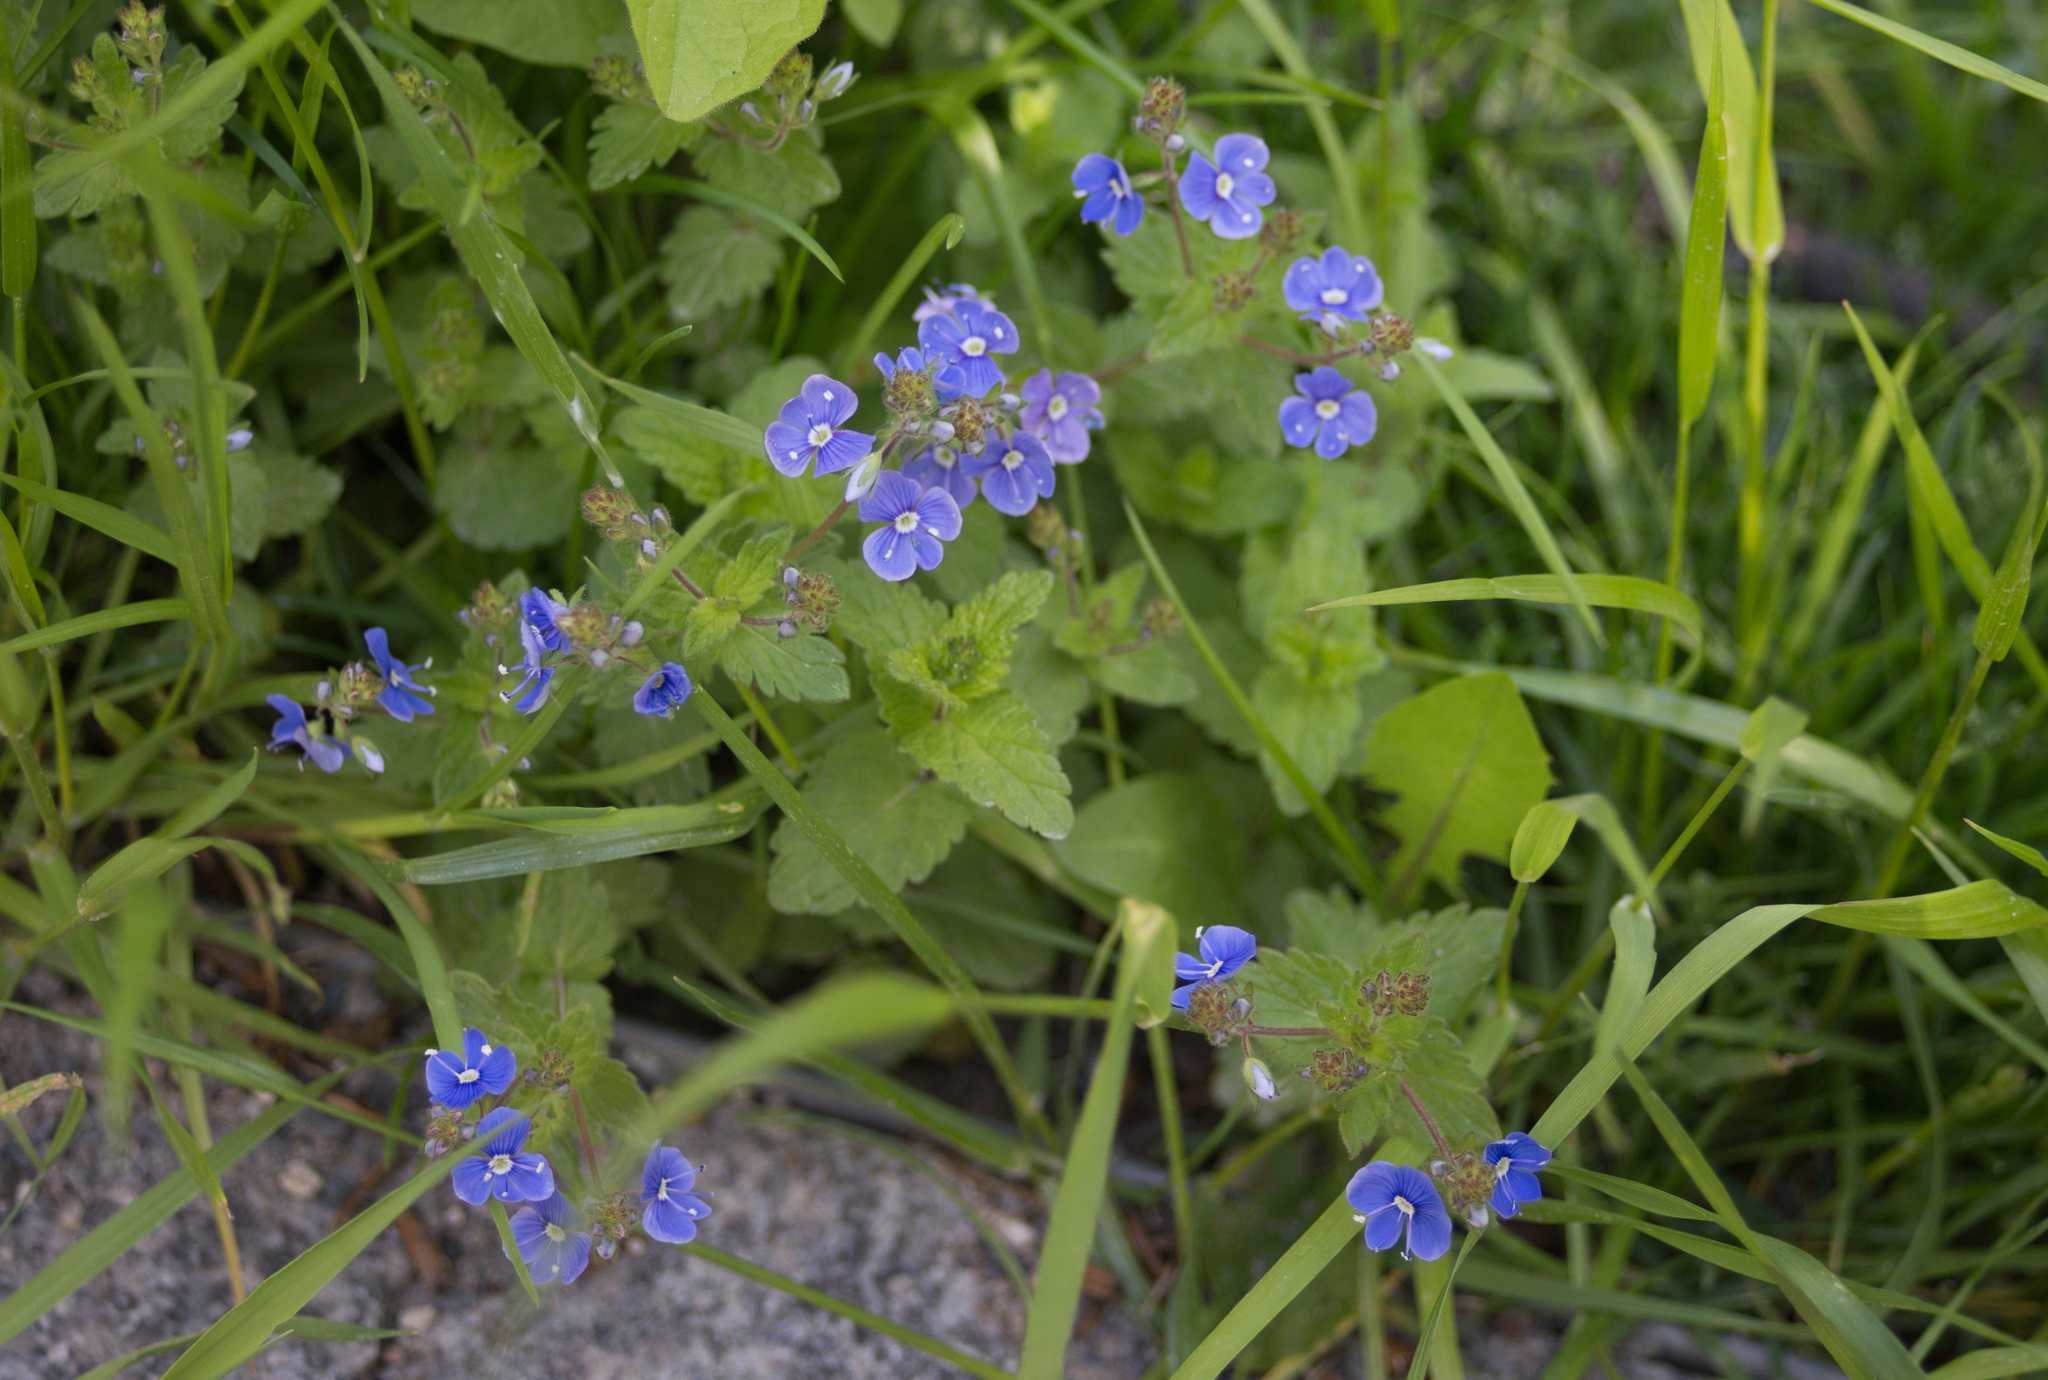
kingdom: Plantae
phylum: Tracheophyta
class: Magnoliopsida
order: Lamiales
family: Plantaginaceae
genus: Veronica
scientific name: Veronica chamaedrys
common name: Germander speedwell
